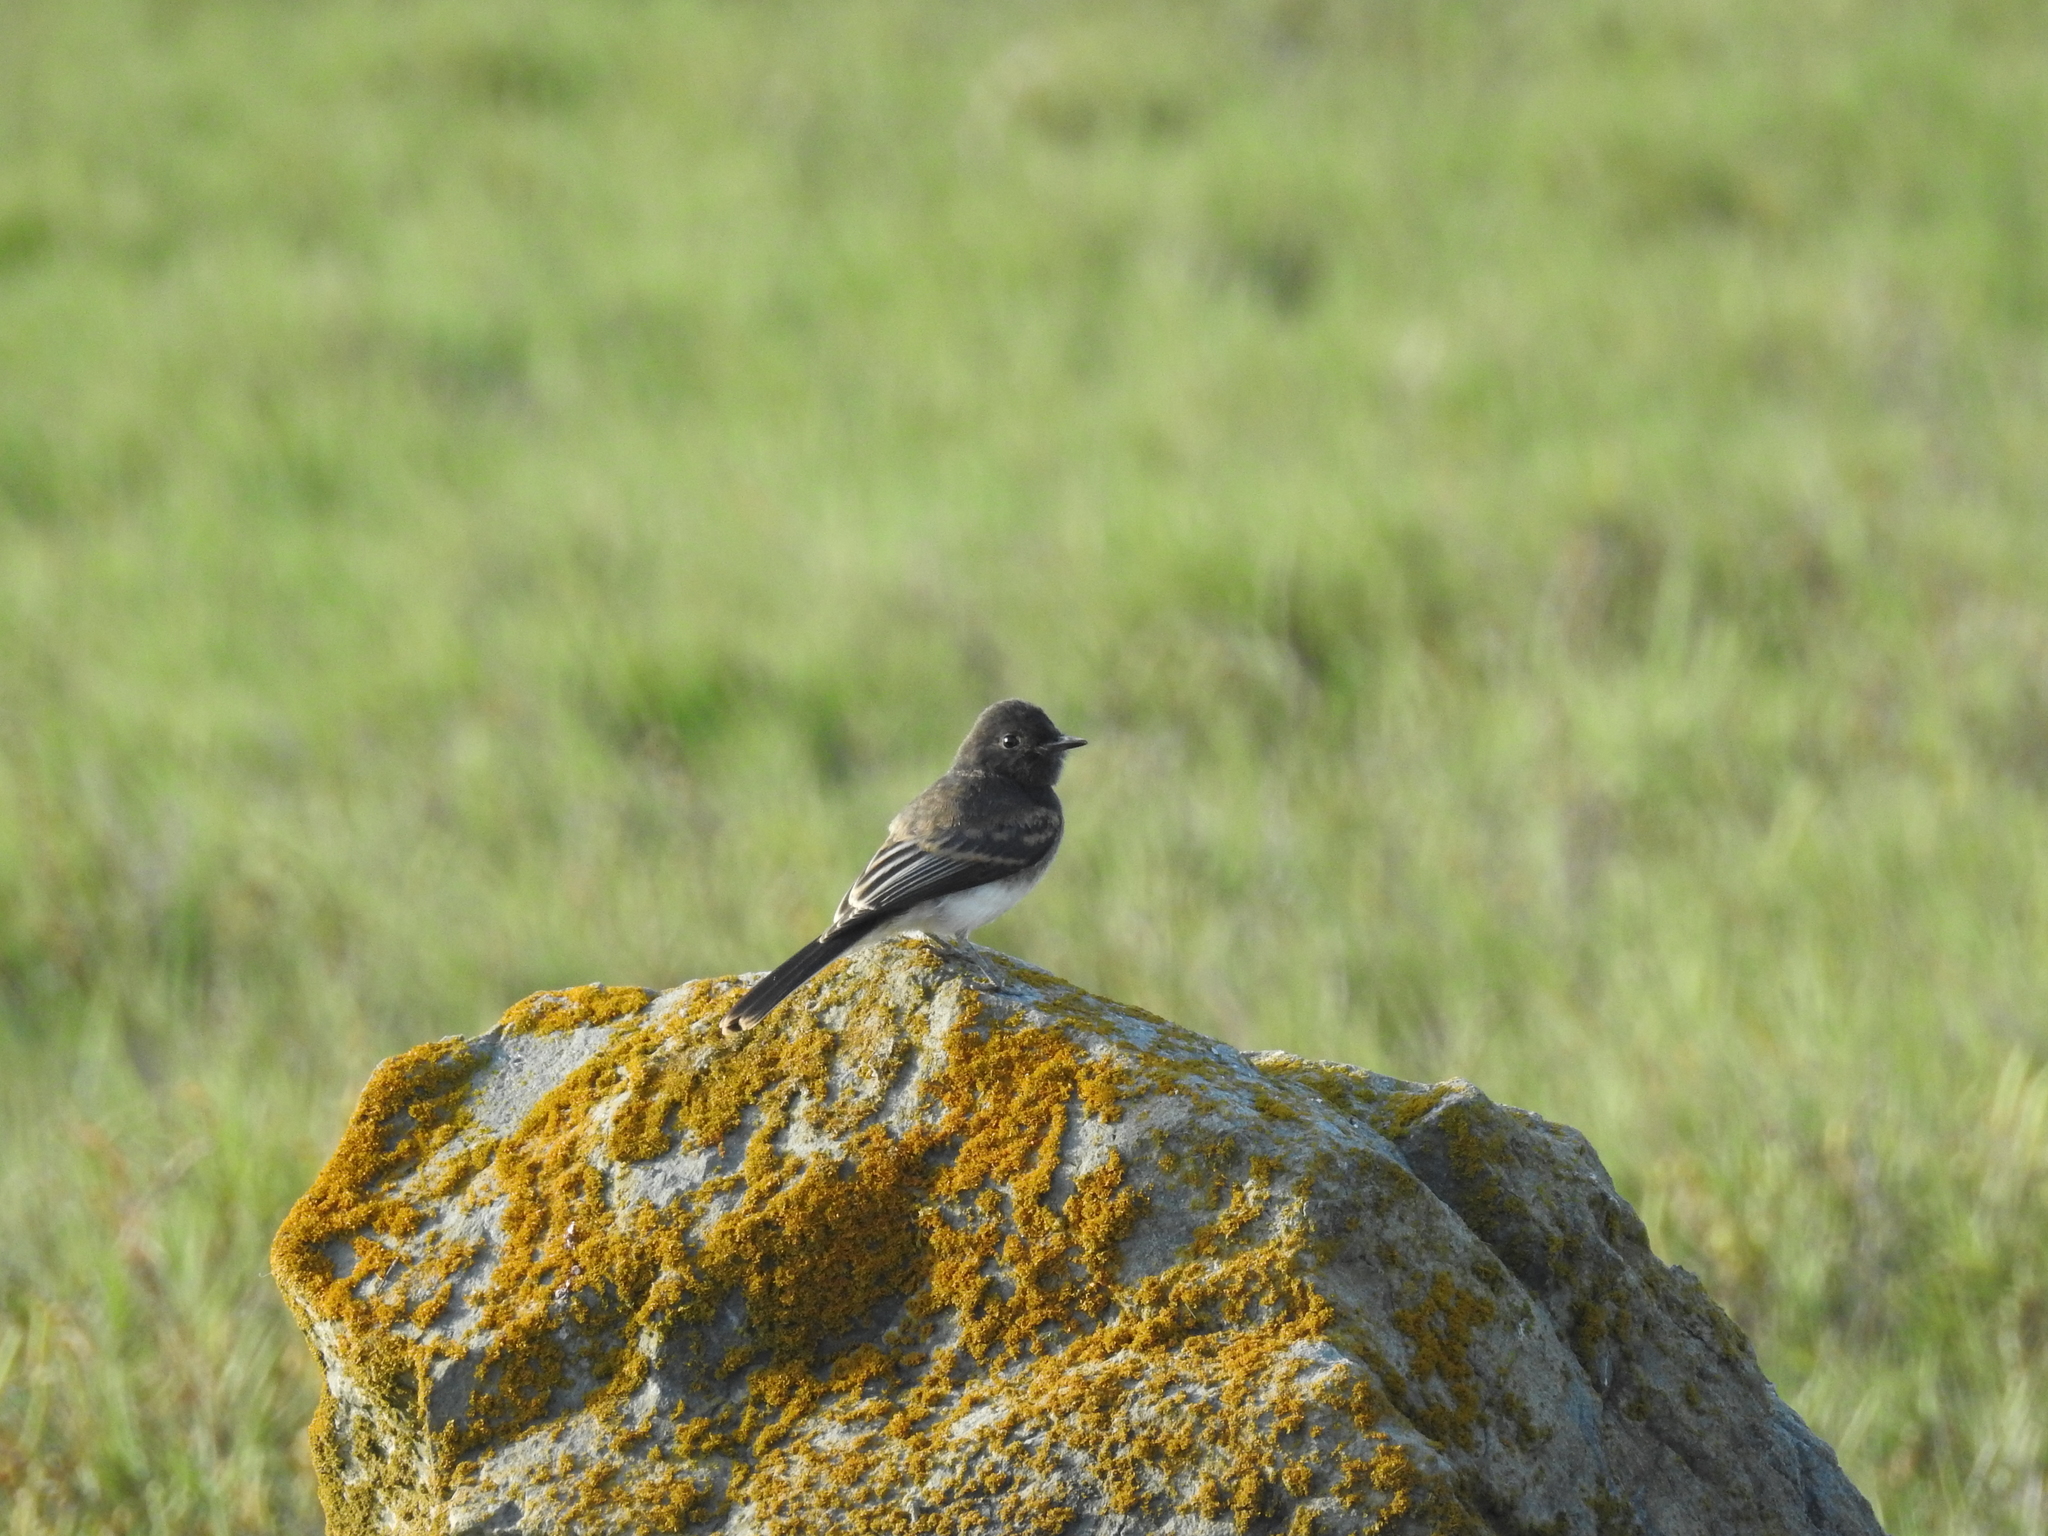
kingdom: Animalia
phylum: Chordata
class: Aves
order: Passeriformes
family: Tyrannidae
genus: Sayornis
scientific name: Sayornis nigricans
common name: Black phoebe
